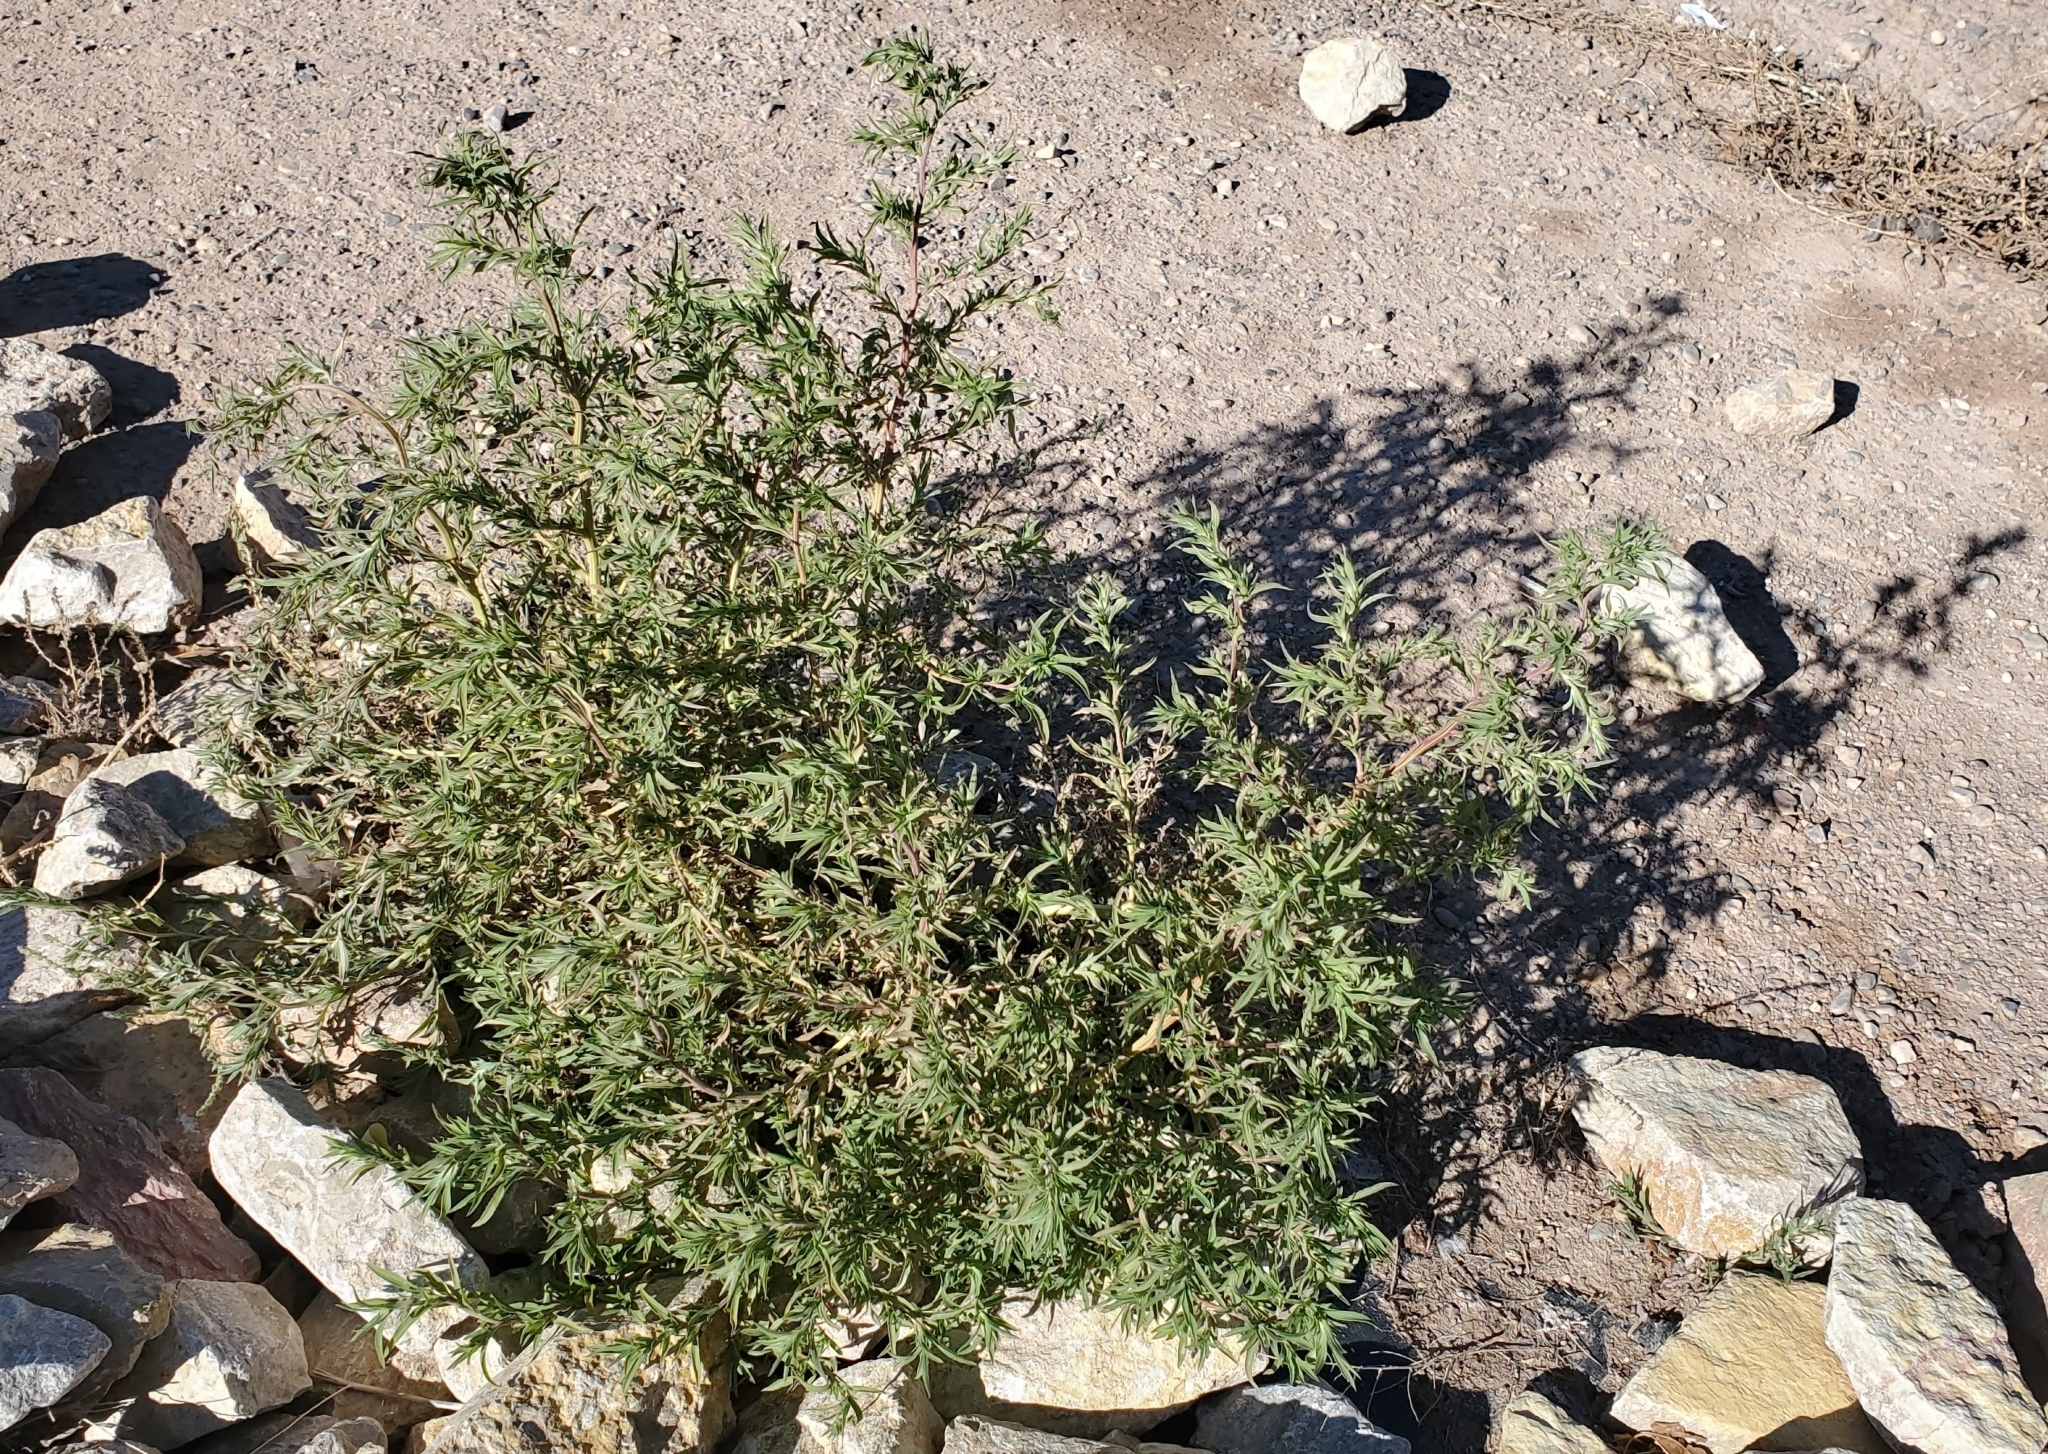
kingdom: Plantae
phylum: Tracheophyta
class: Magnoliopsida
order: Caryophyllales
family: Amaranthaceae
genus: Bassia
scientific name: Bassia scoparia
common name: Belvedere
